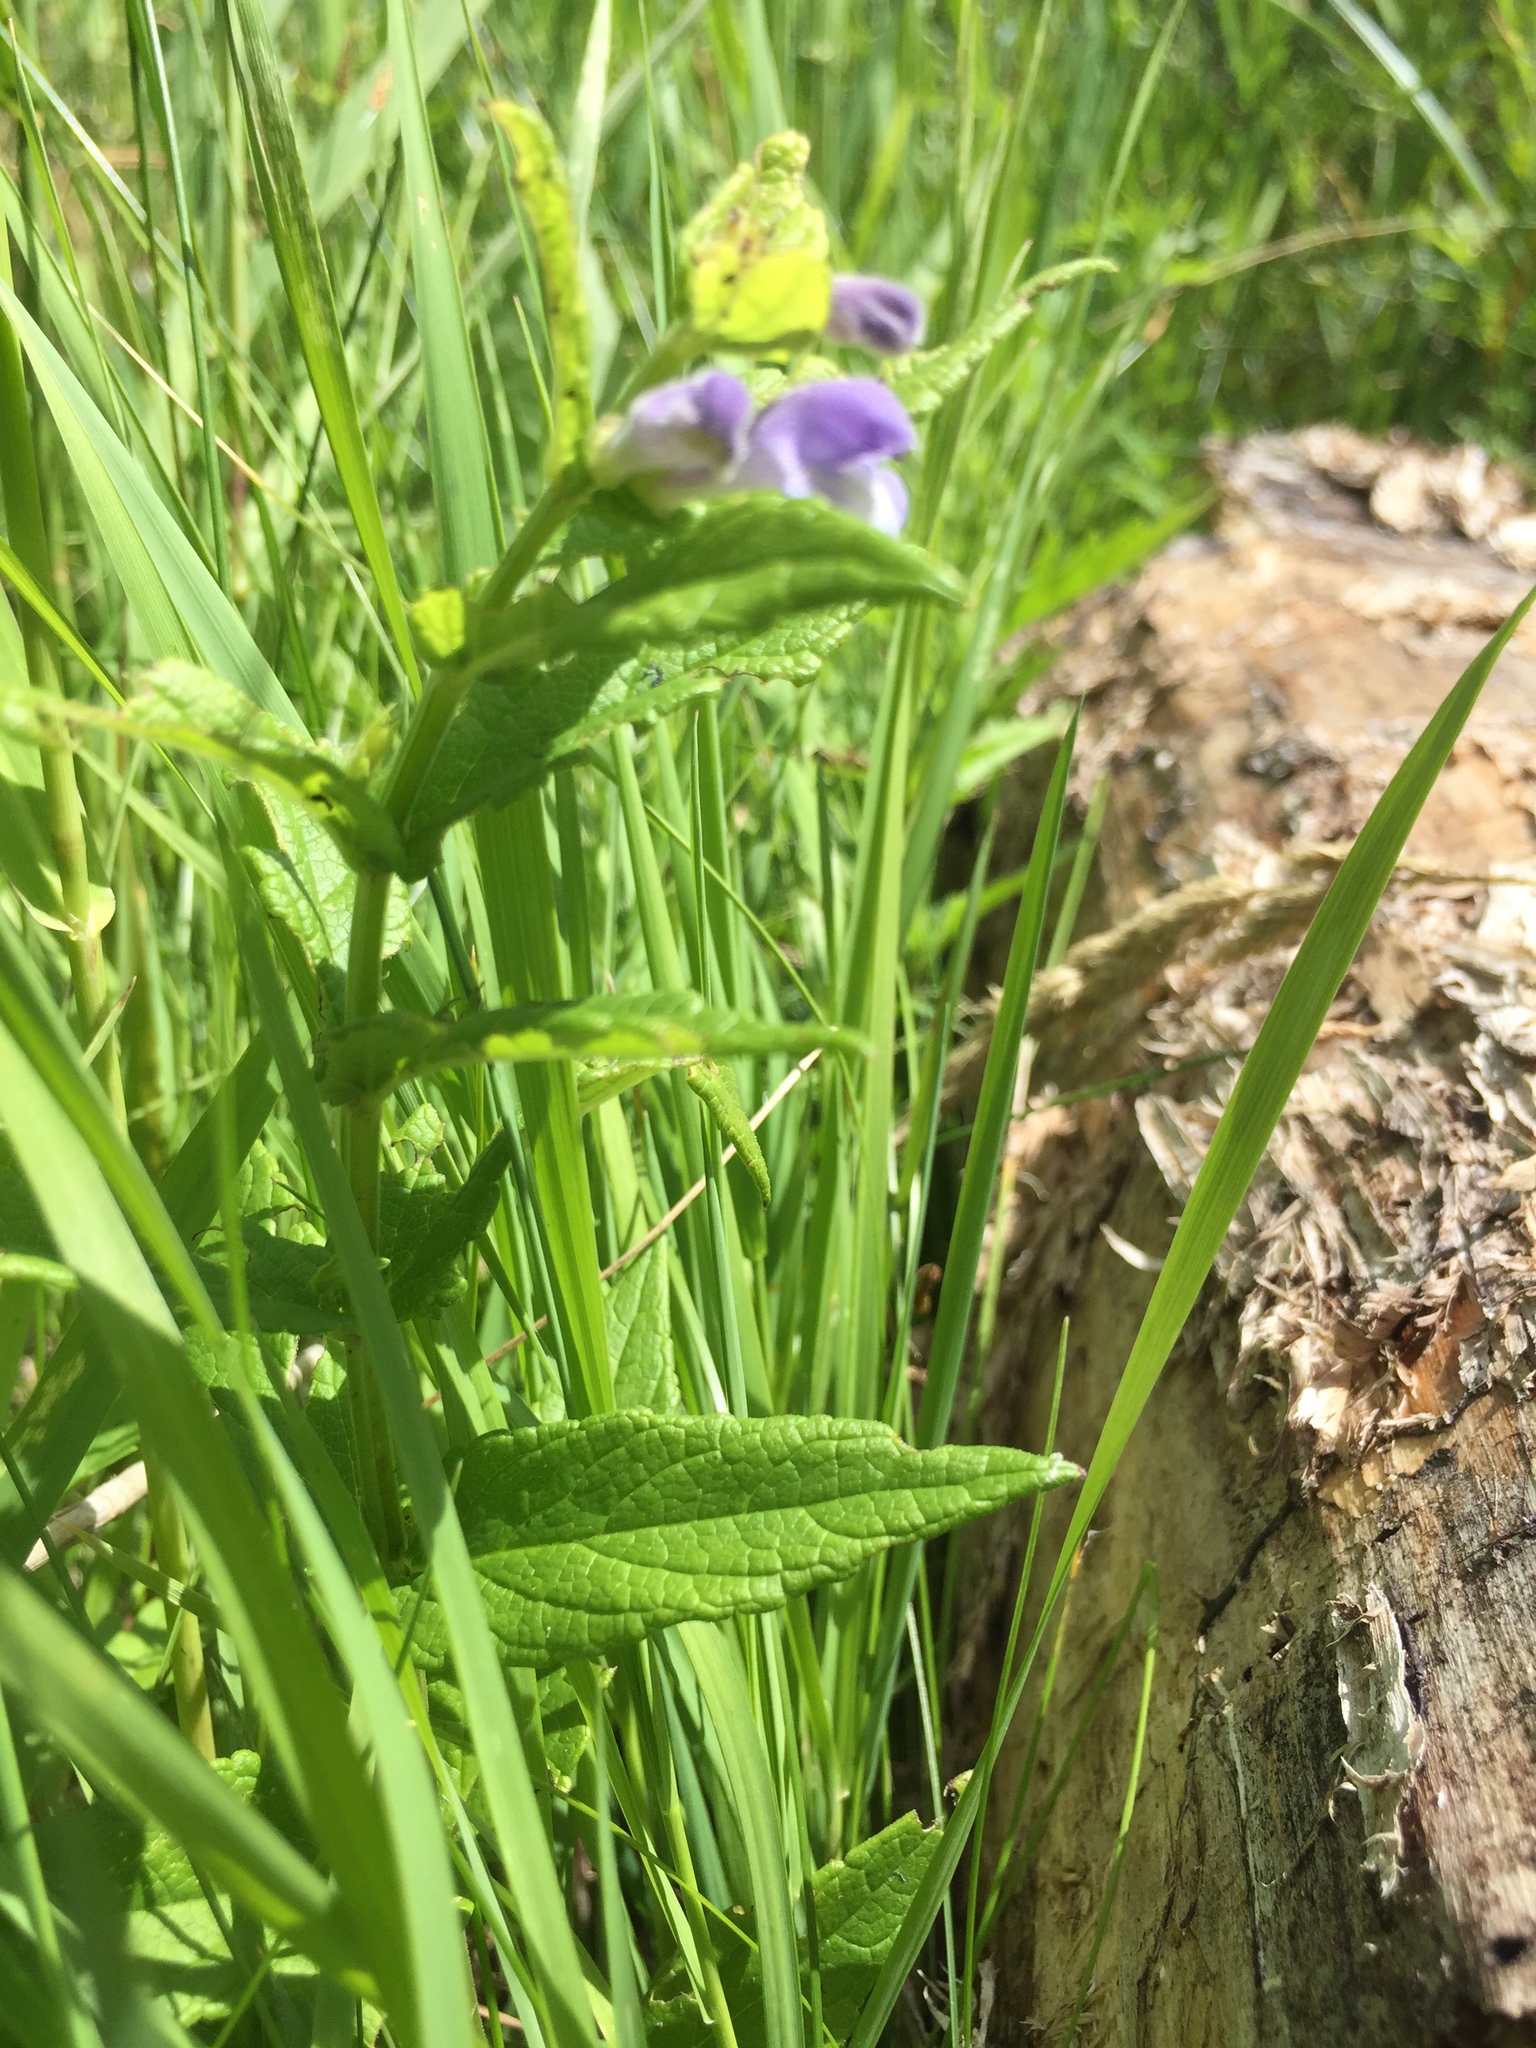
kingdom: Plantae
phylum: Tracheophyta
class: Magnoliopsida
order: Lamiales
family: Lamiaceae
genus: Scutellaria
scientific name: Scutellaria galericulata
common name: Skullcap
